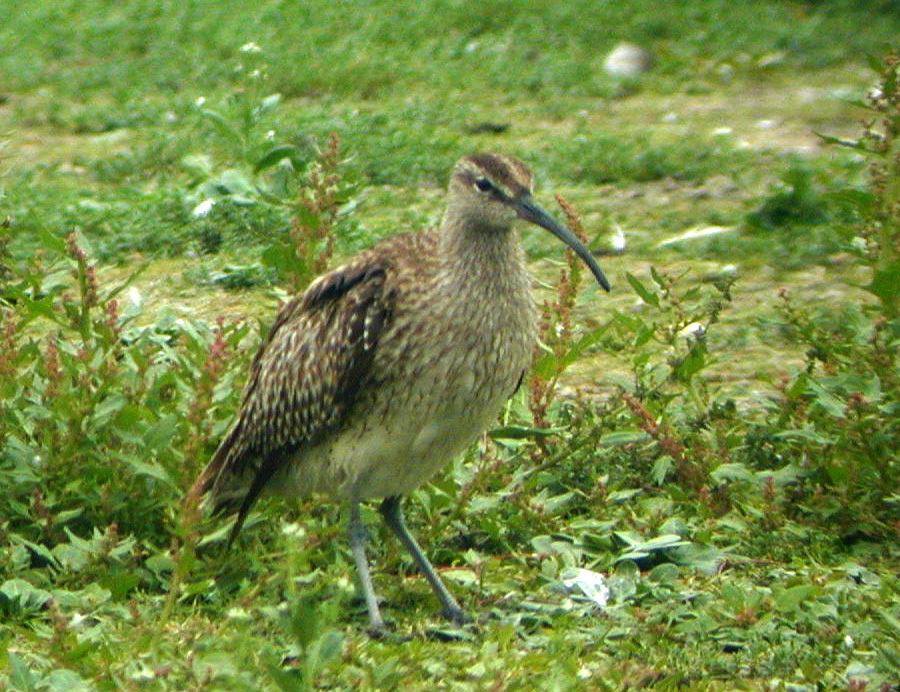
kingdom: Animalia
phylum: Chordata
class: Aves
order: Charadriiformes
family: Scolopacidae
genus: Numenius
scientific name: Numenius phaeopus
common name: Whimbrel
